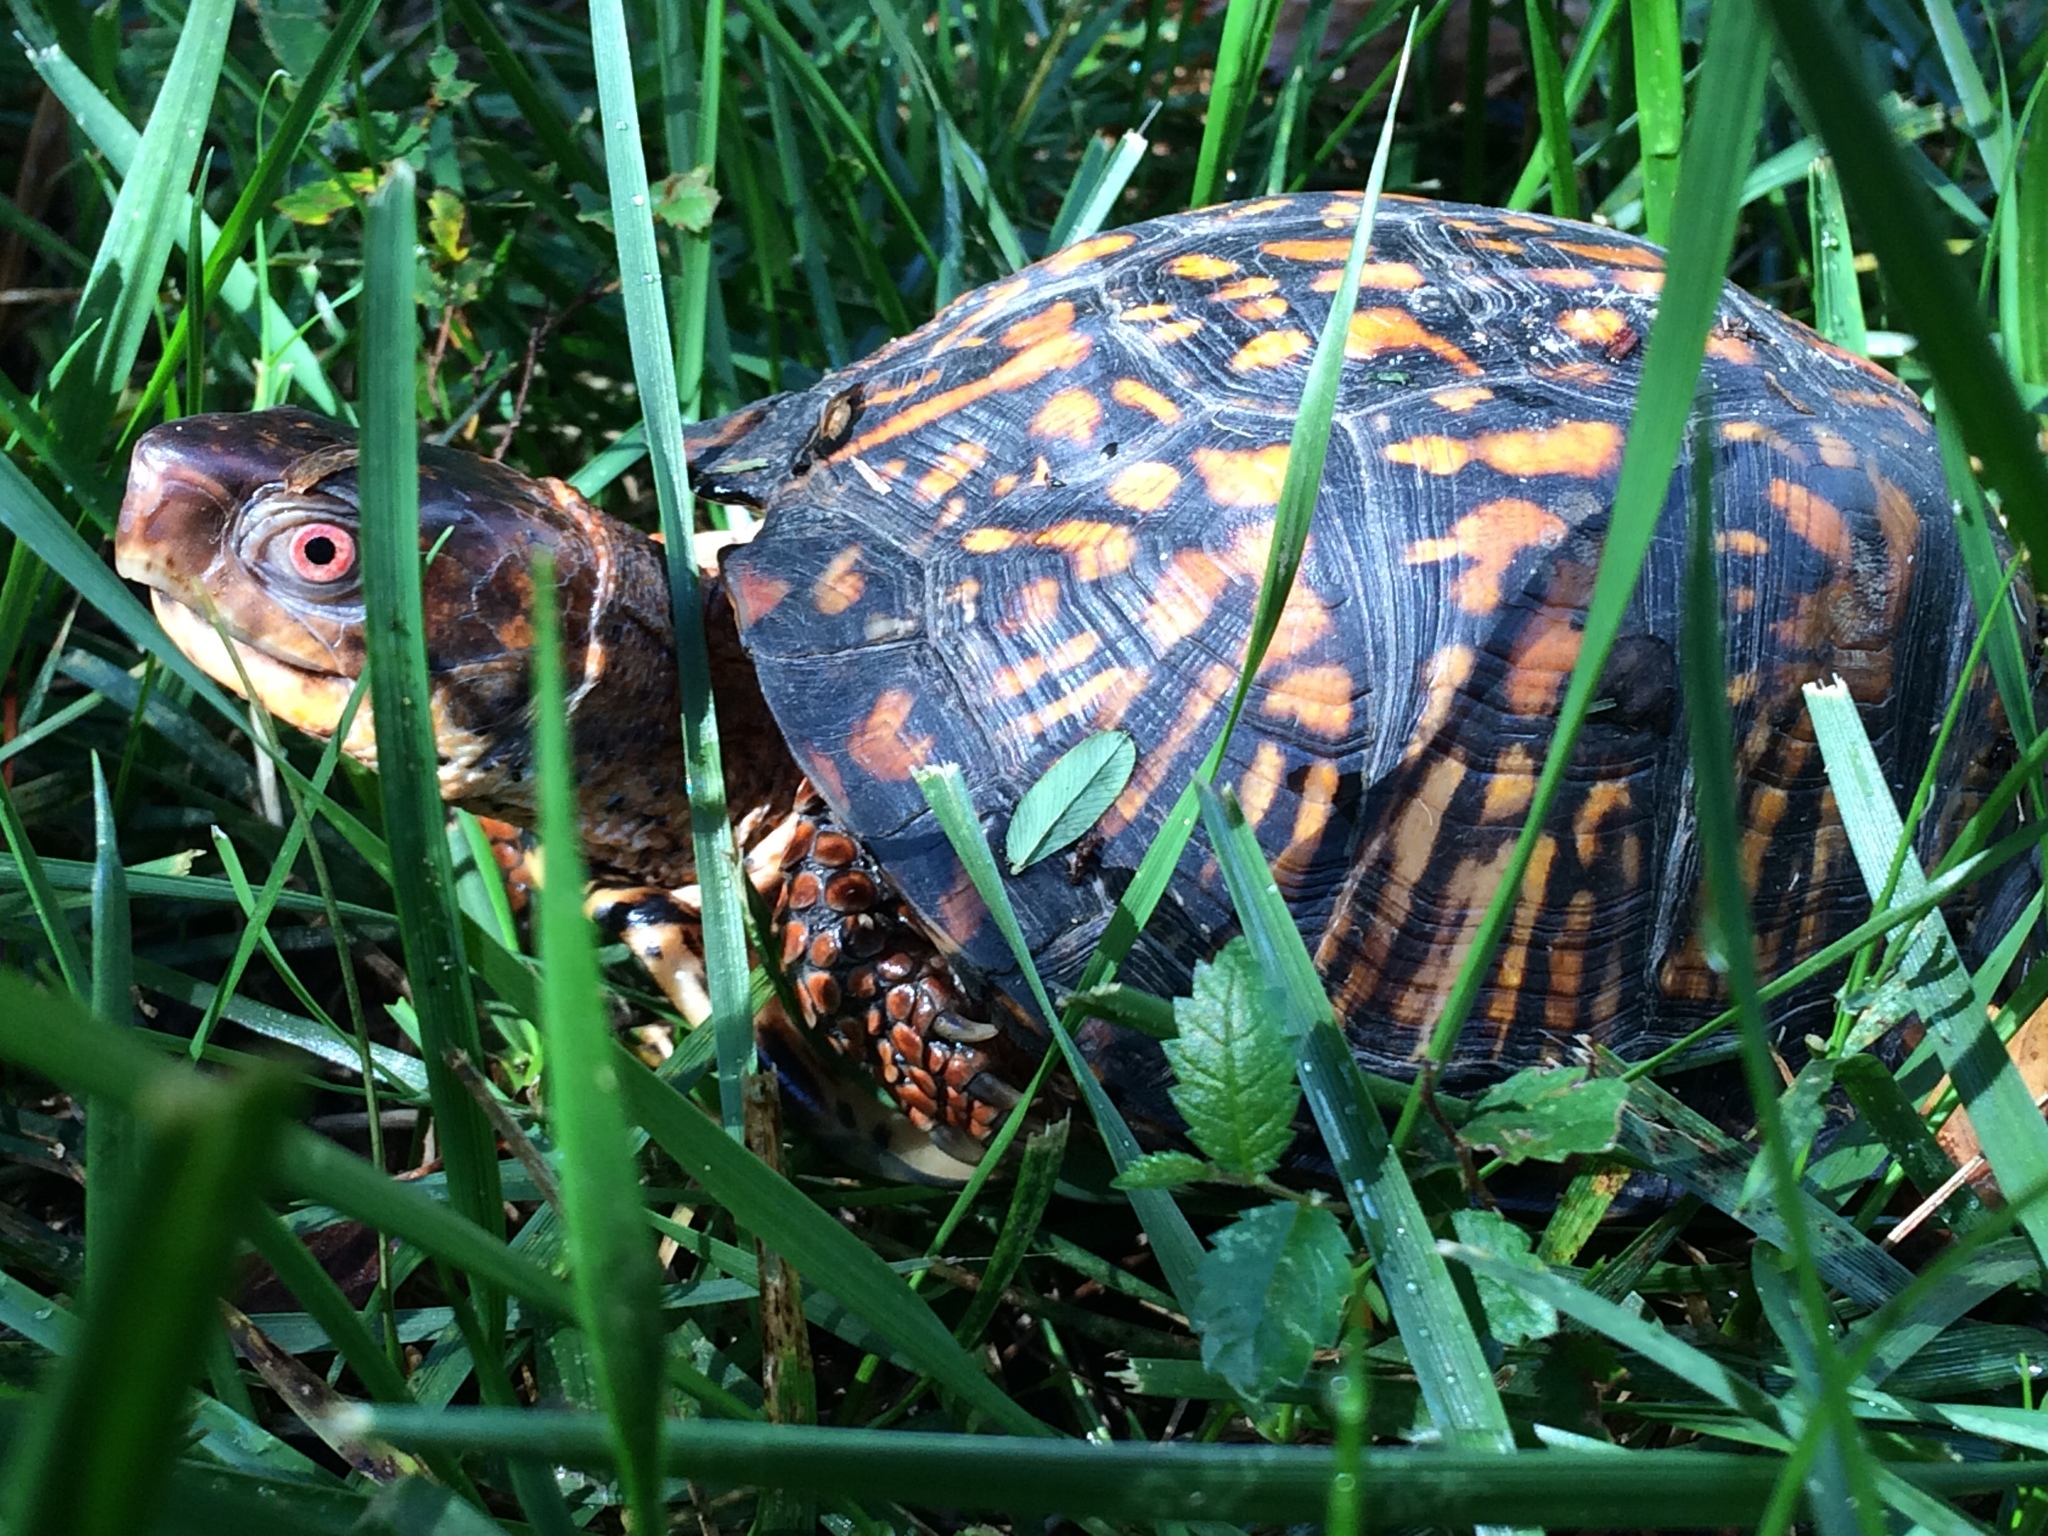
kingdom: Animalia
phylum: Chordata
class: Testudines
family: Emydidae
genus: Terrapene
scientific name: Terrapene carolina
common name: Common box turtle
